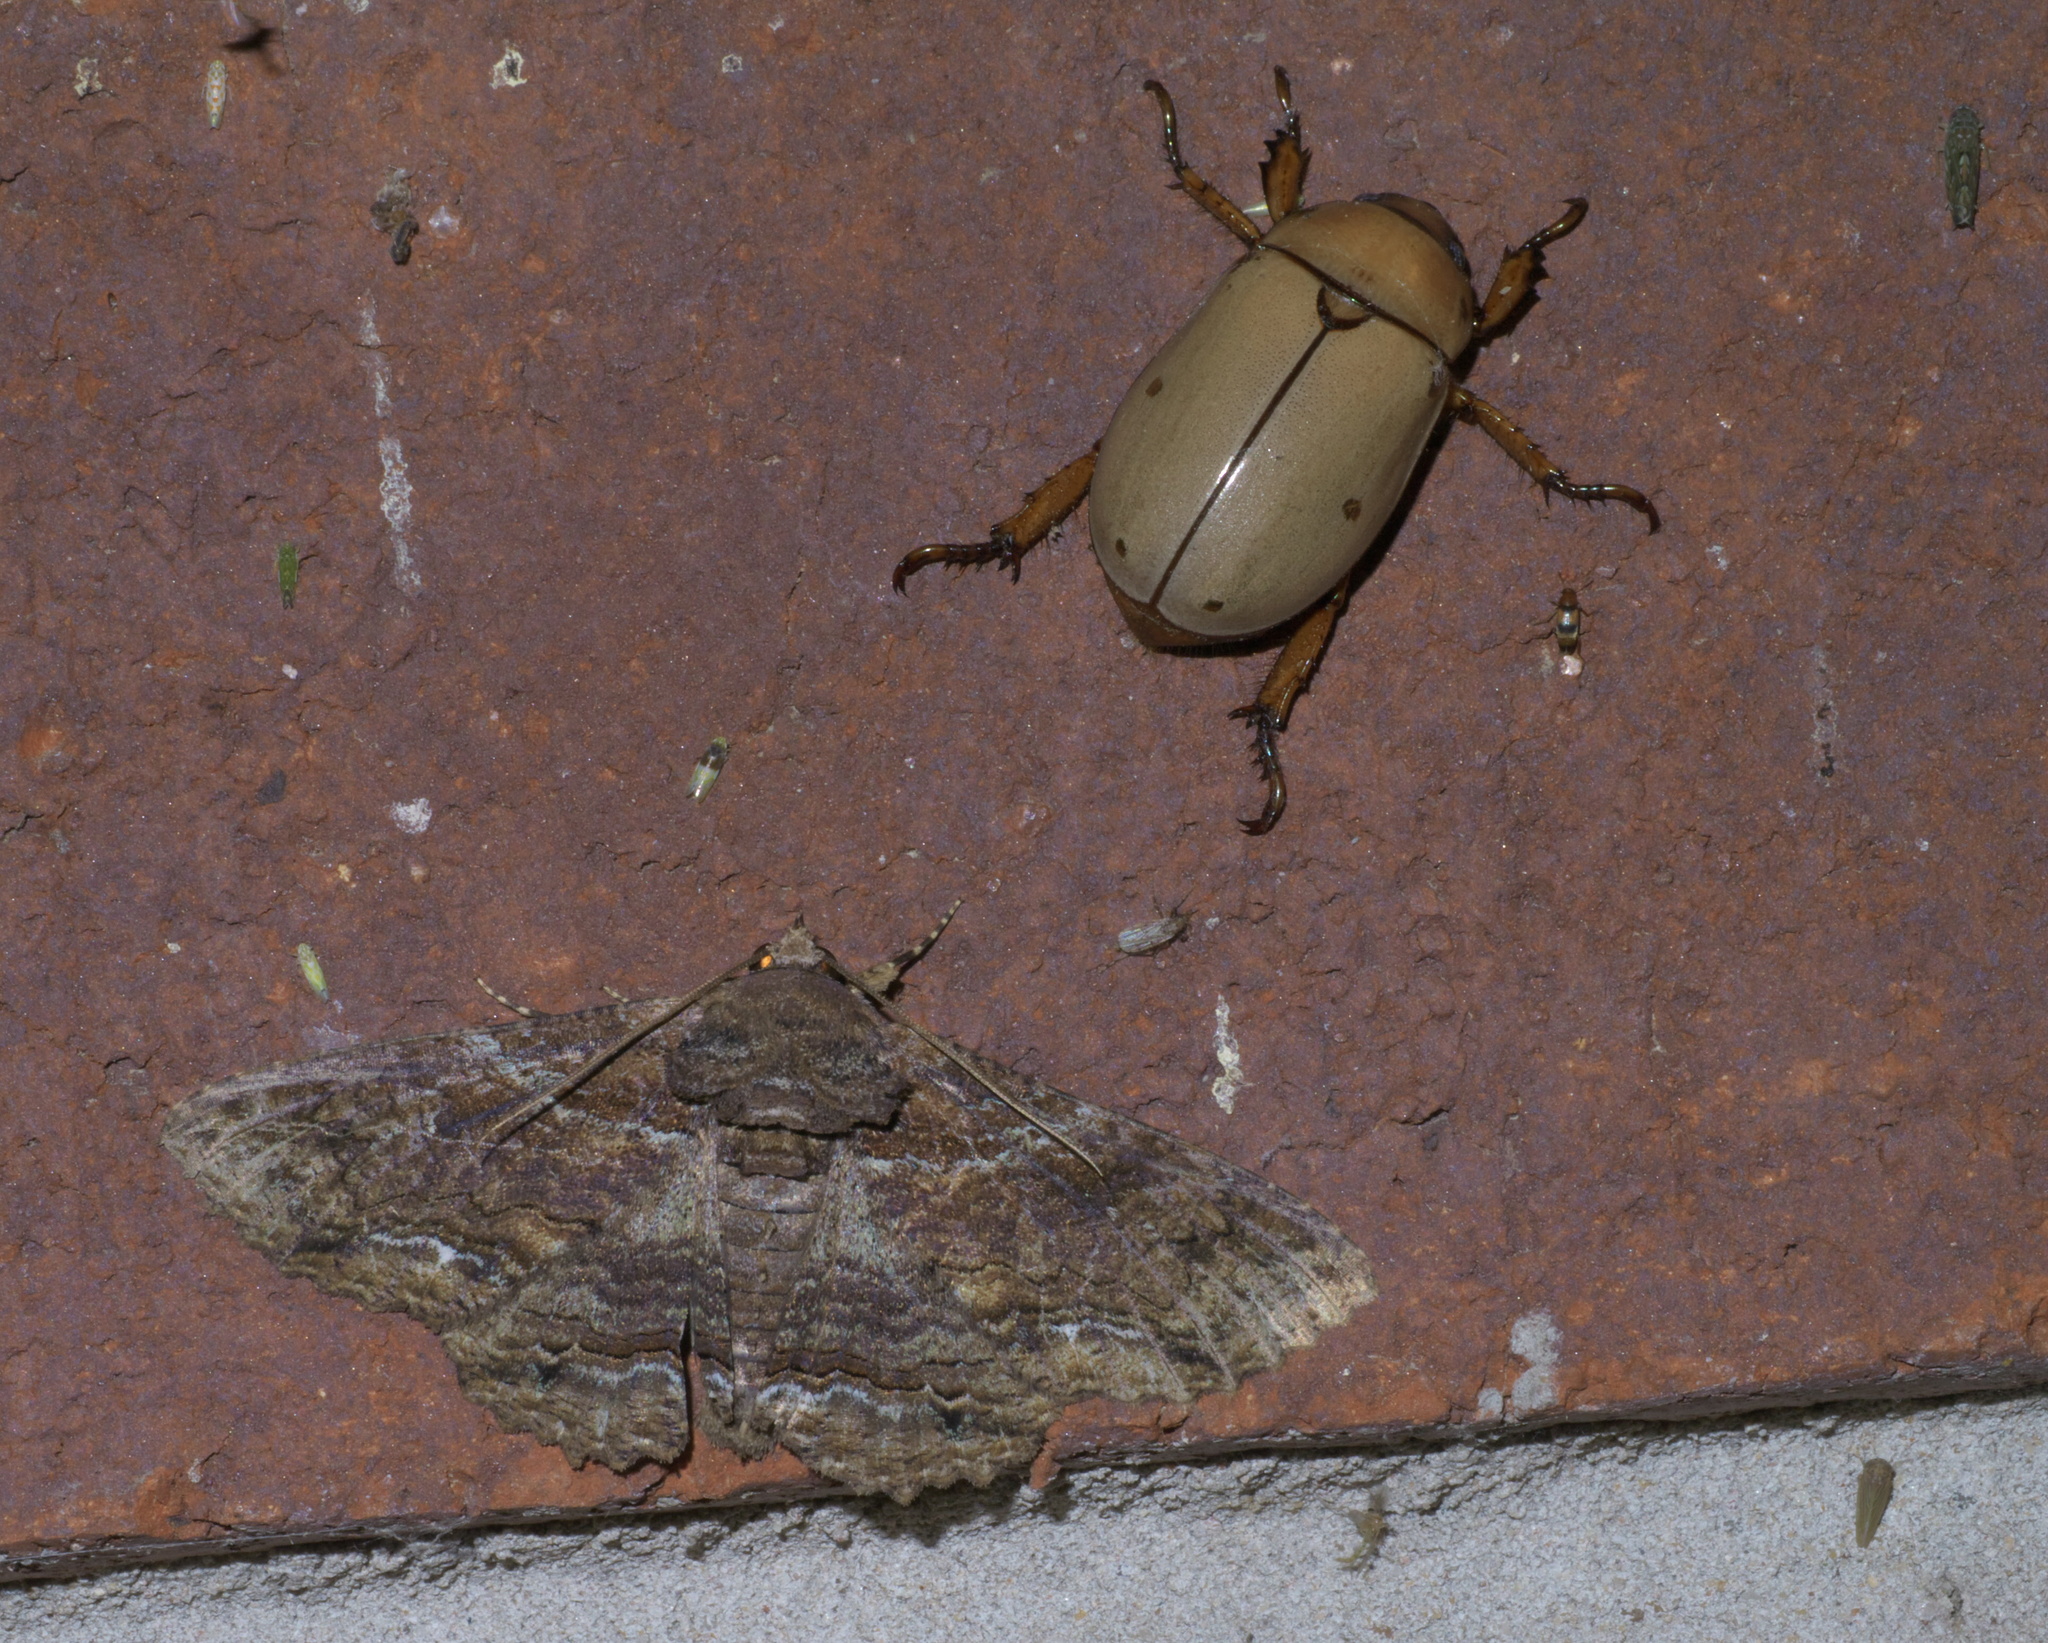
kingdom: Animalia
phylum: Arthropoda
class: Insecta
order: Lepidoptera
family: Erebidae
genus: Zale
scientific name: Zale lunata
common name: Lunate zale moth
